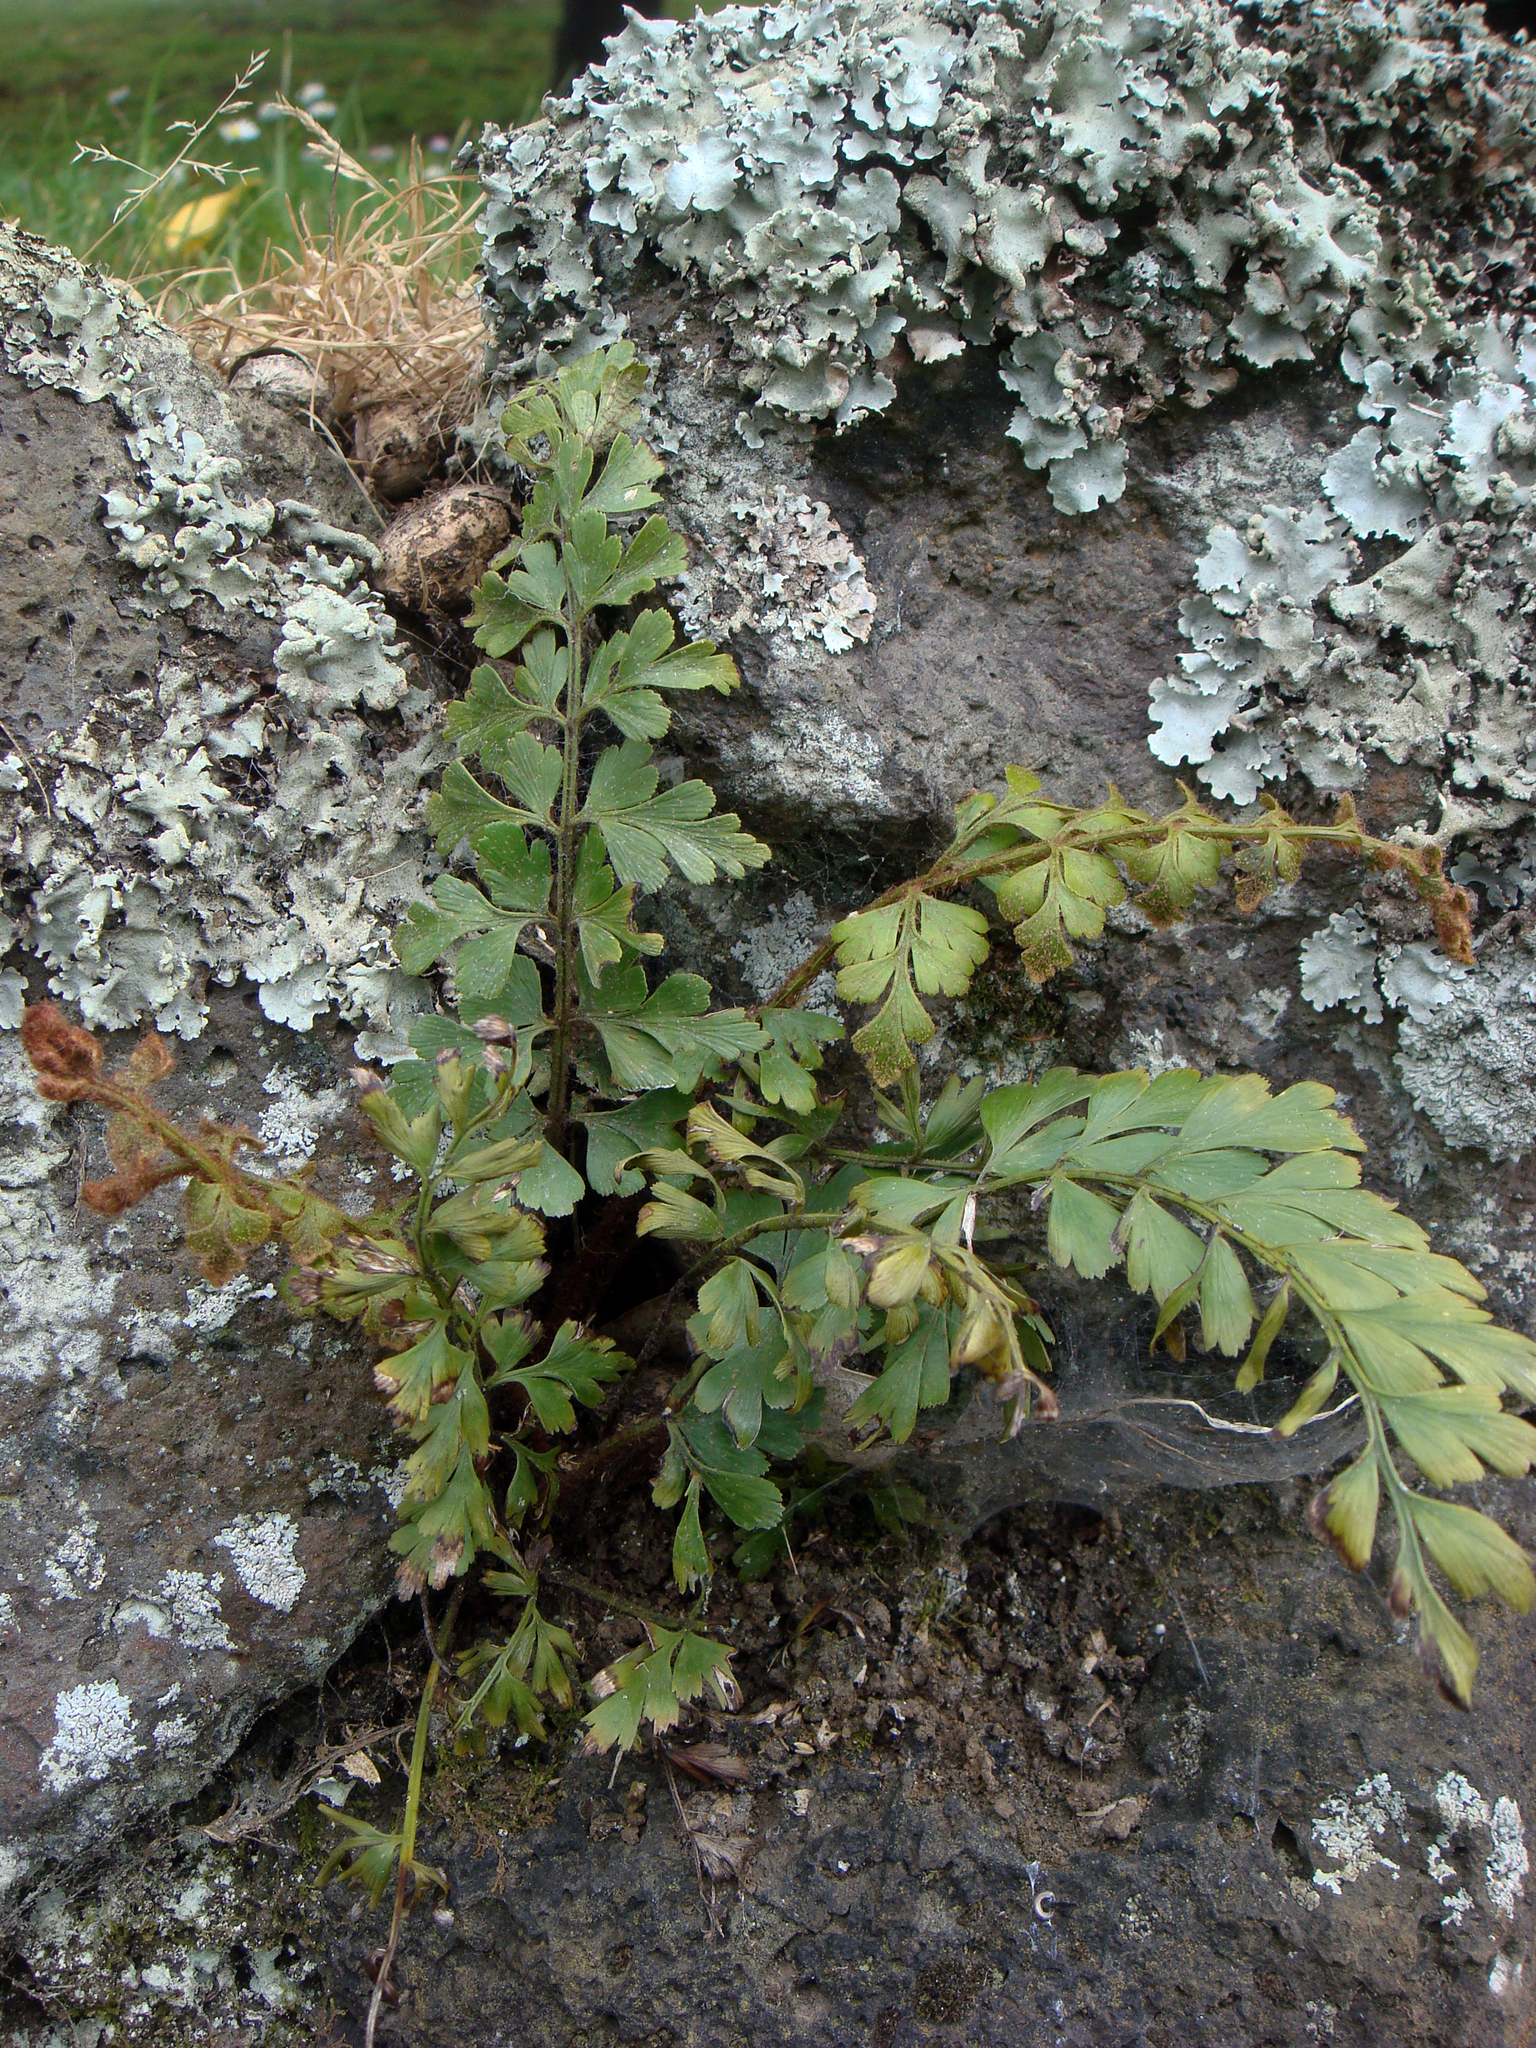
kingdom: Plantae
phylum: Tracheophyta
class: Polypodiopsida
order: Polypodiales
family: Aspleniaceae
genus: Asplenium
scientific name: Asplenium aethiopicum
